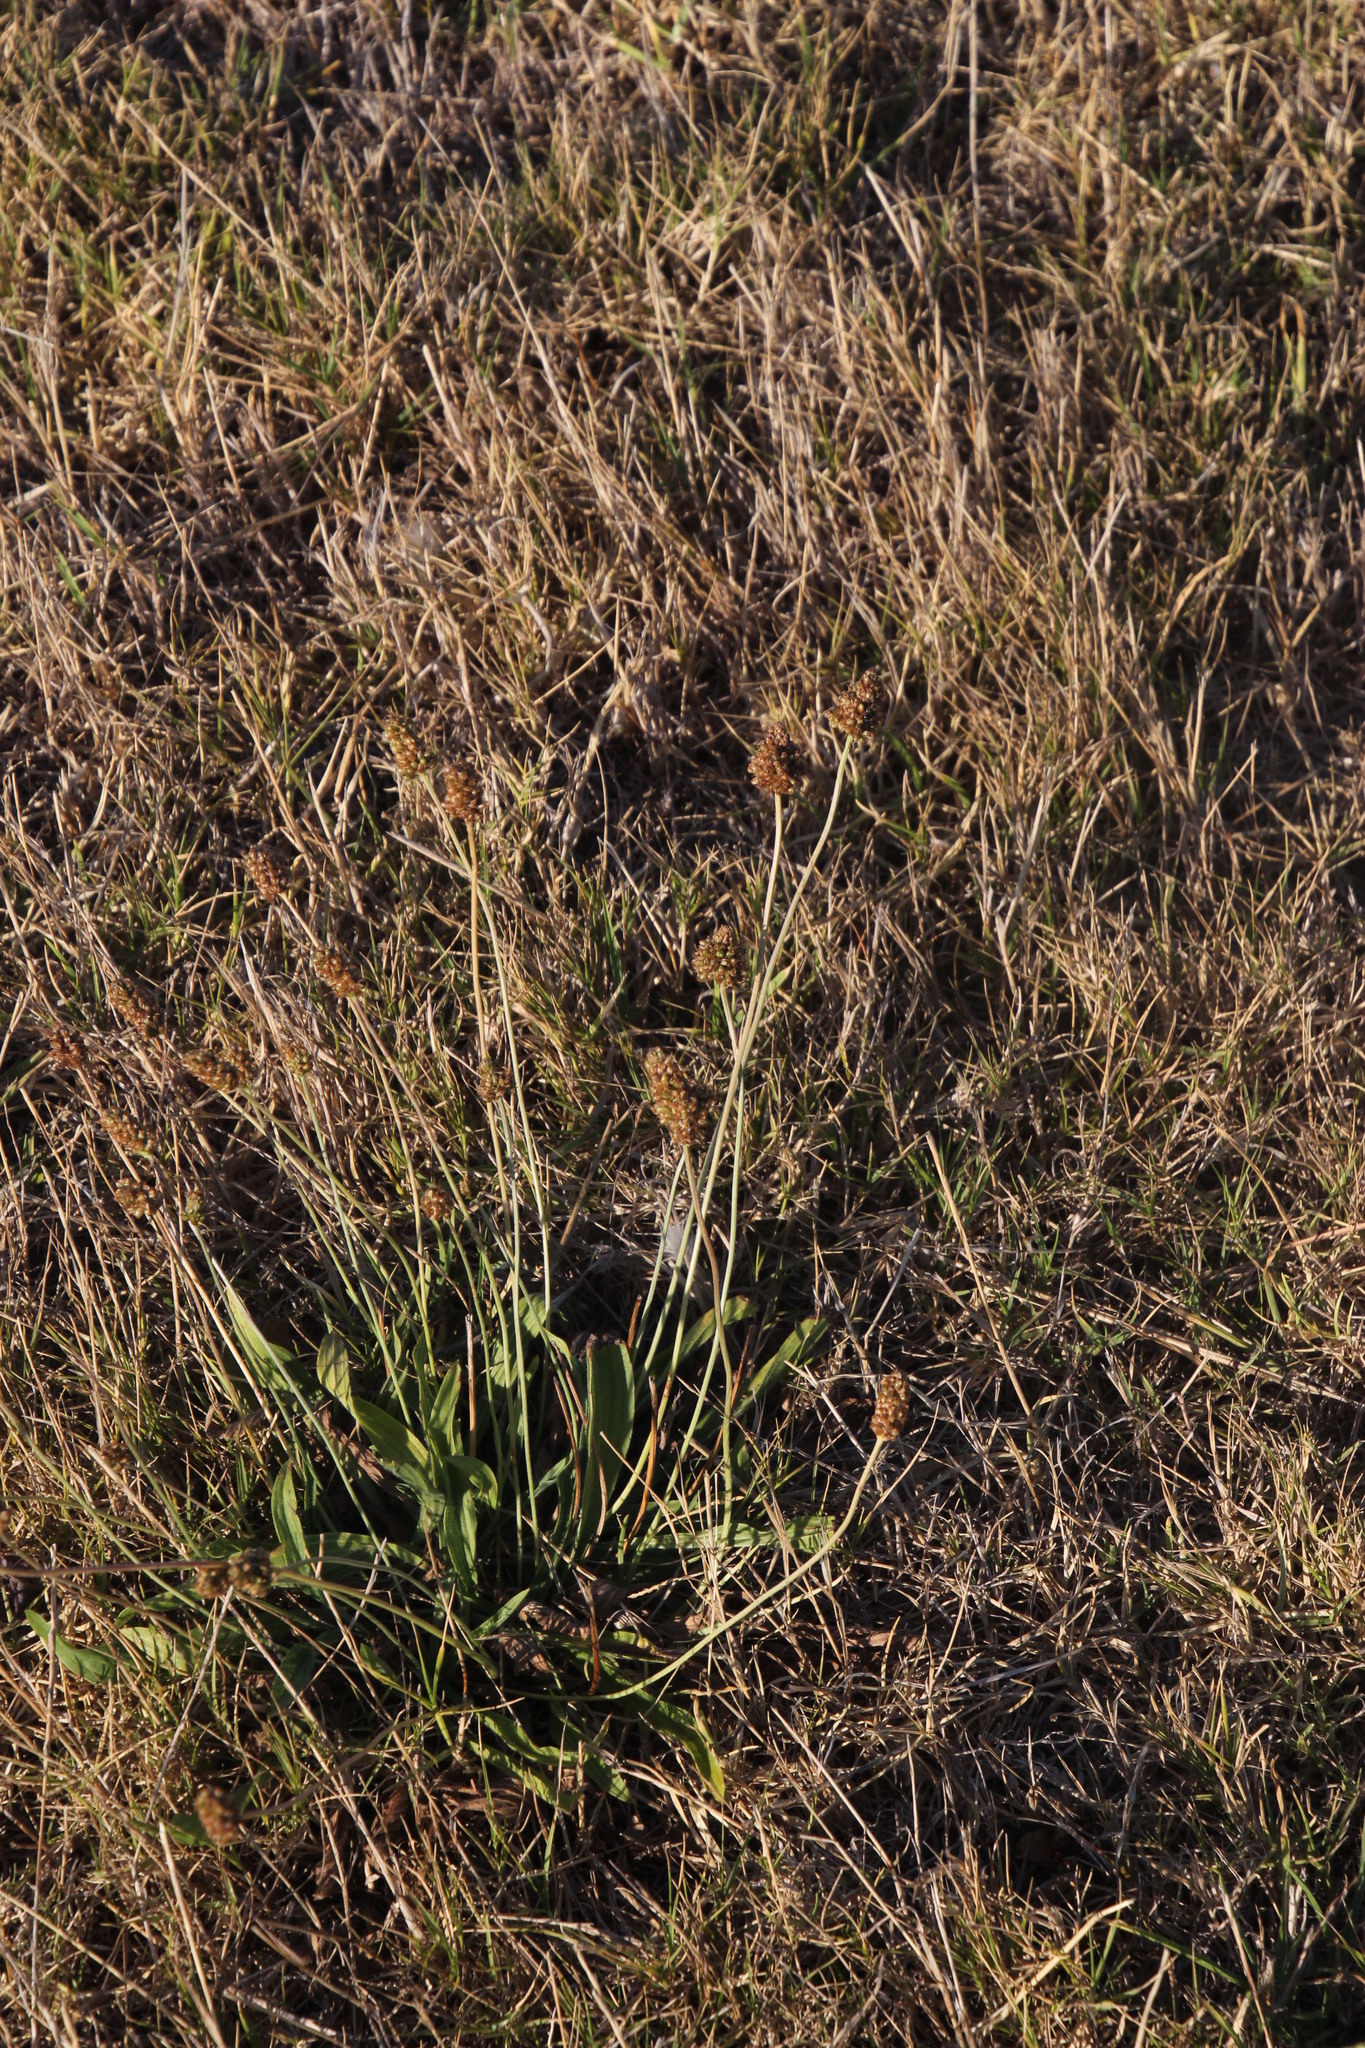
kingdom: Plantae
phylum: Tracheophyta
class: Magnoliopsida
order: Lamiales
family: Plantaginaceae
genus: Plantago
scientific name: Plantago lanceolata
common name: Ribwort plantain
